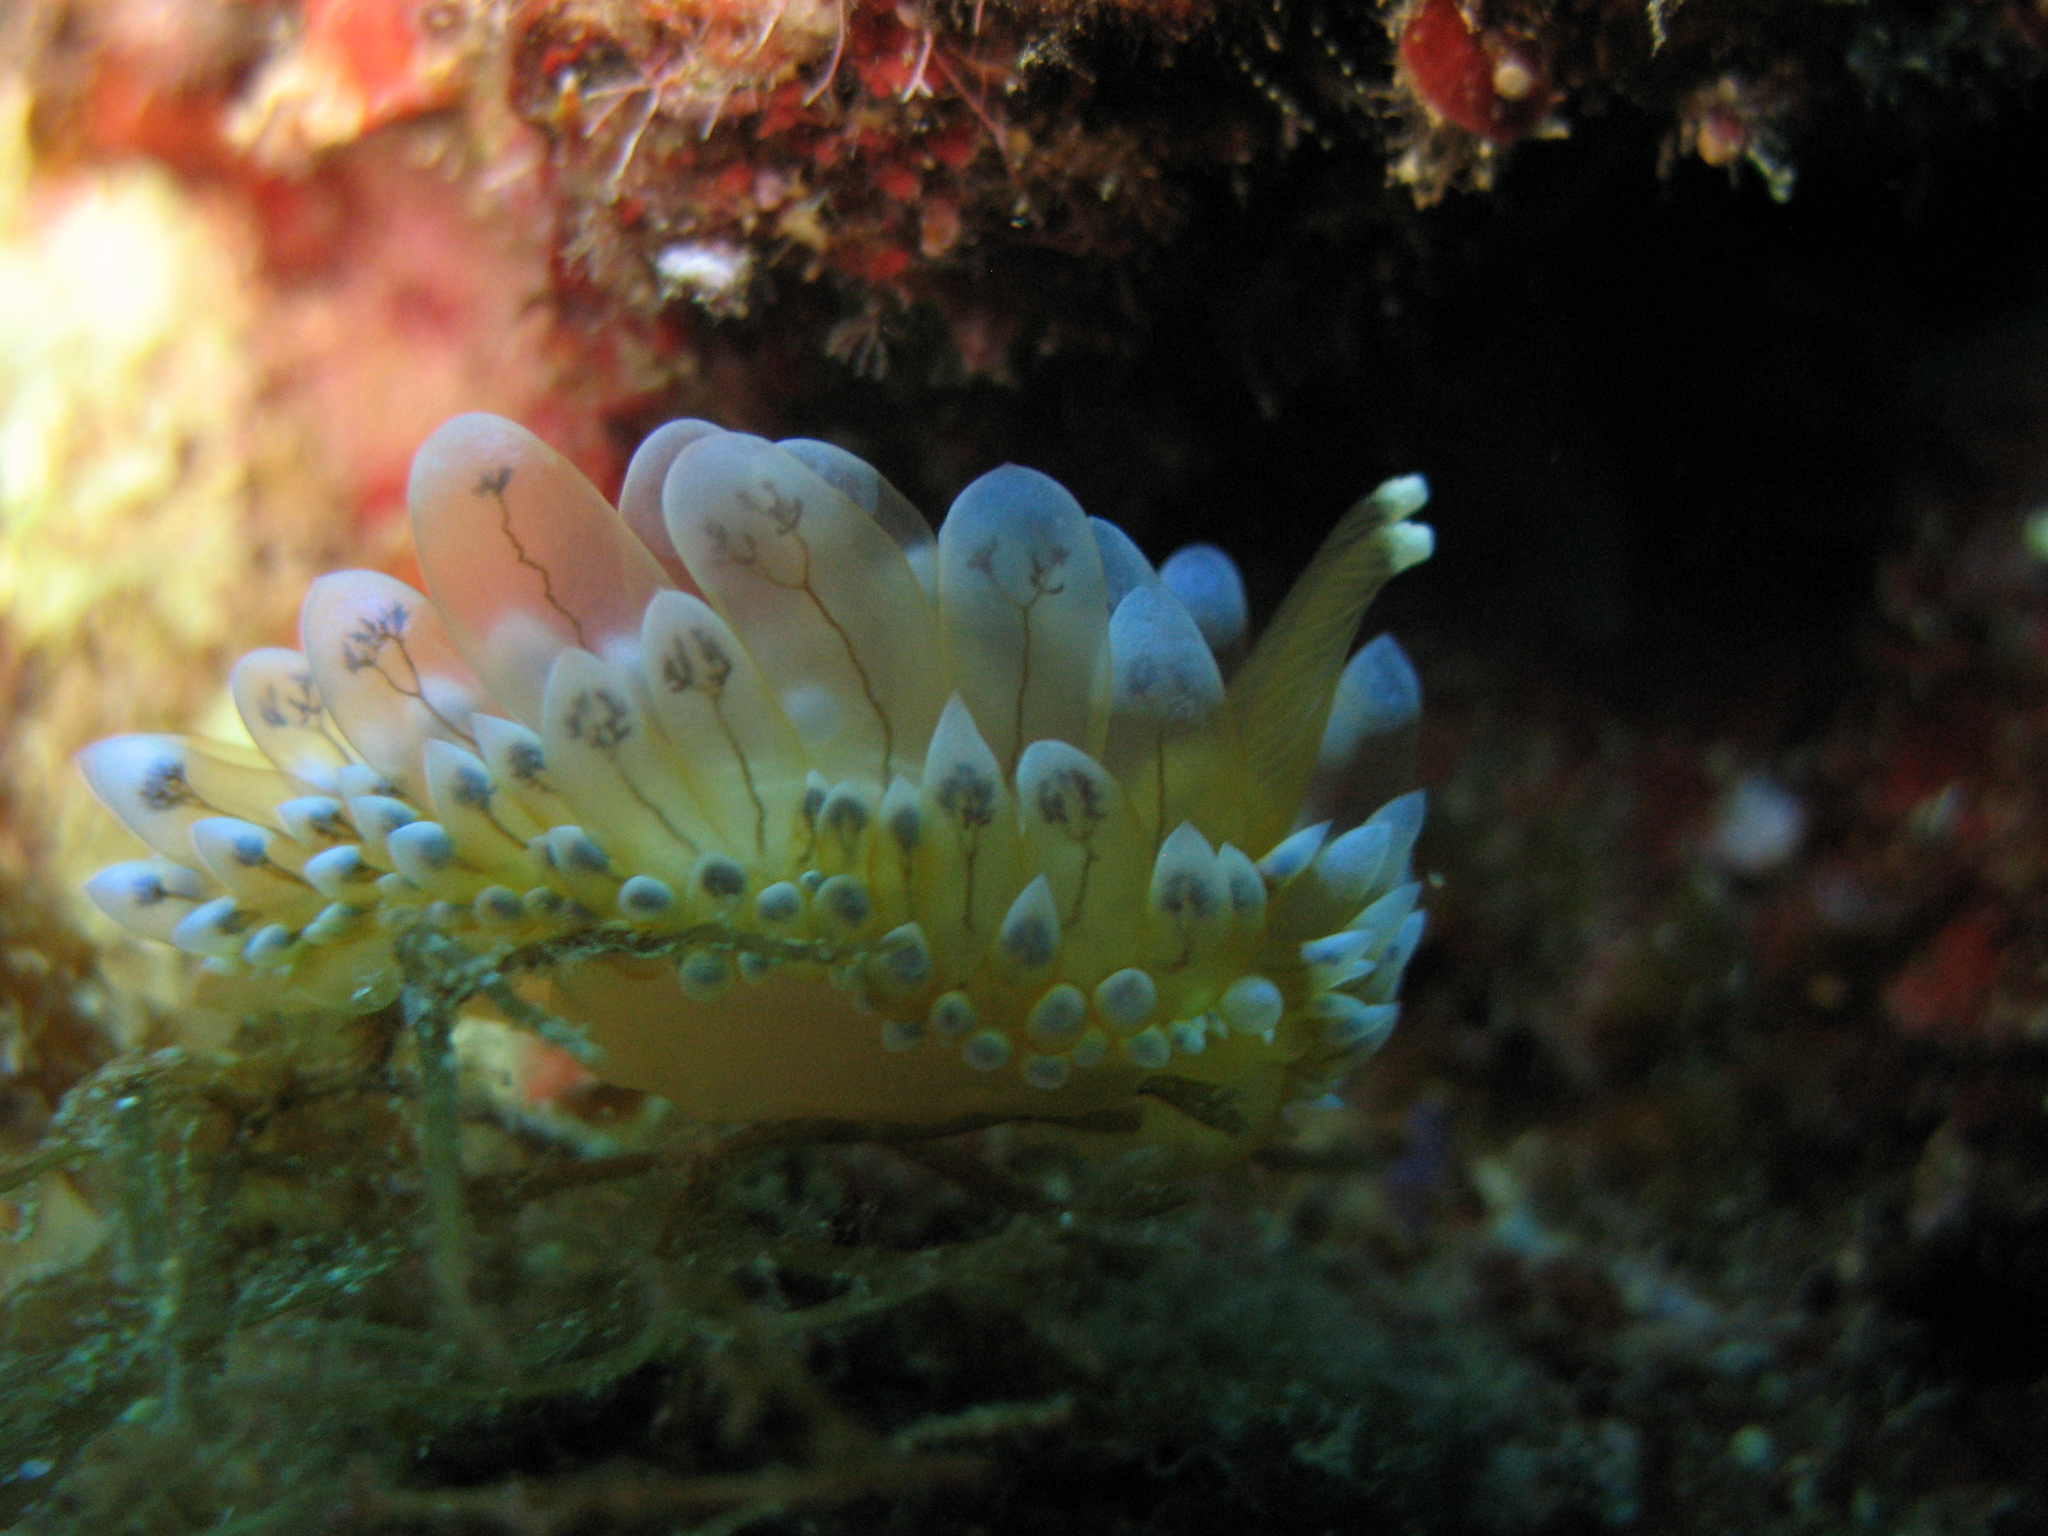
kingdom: Animalia
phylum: Mollusca
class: Gastropoda
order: Nudibranchia
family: Janolidae
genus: Antiopella
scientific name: Antiopella cristata
